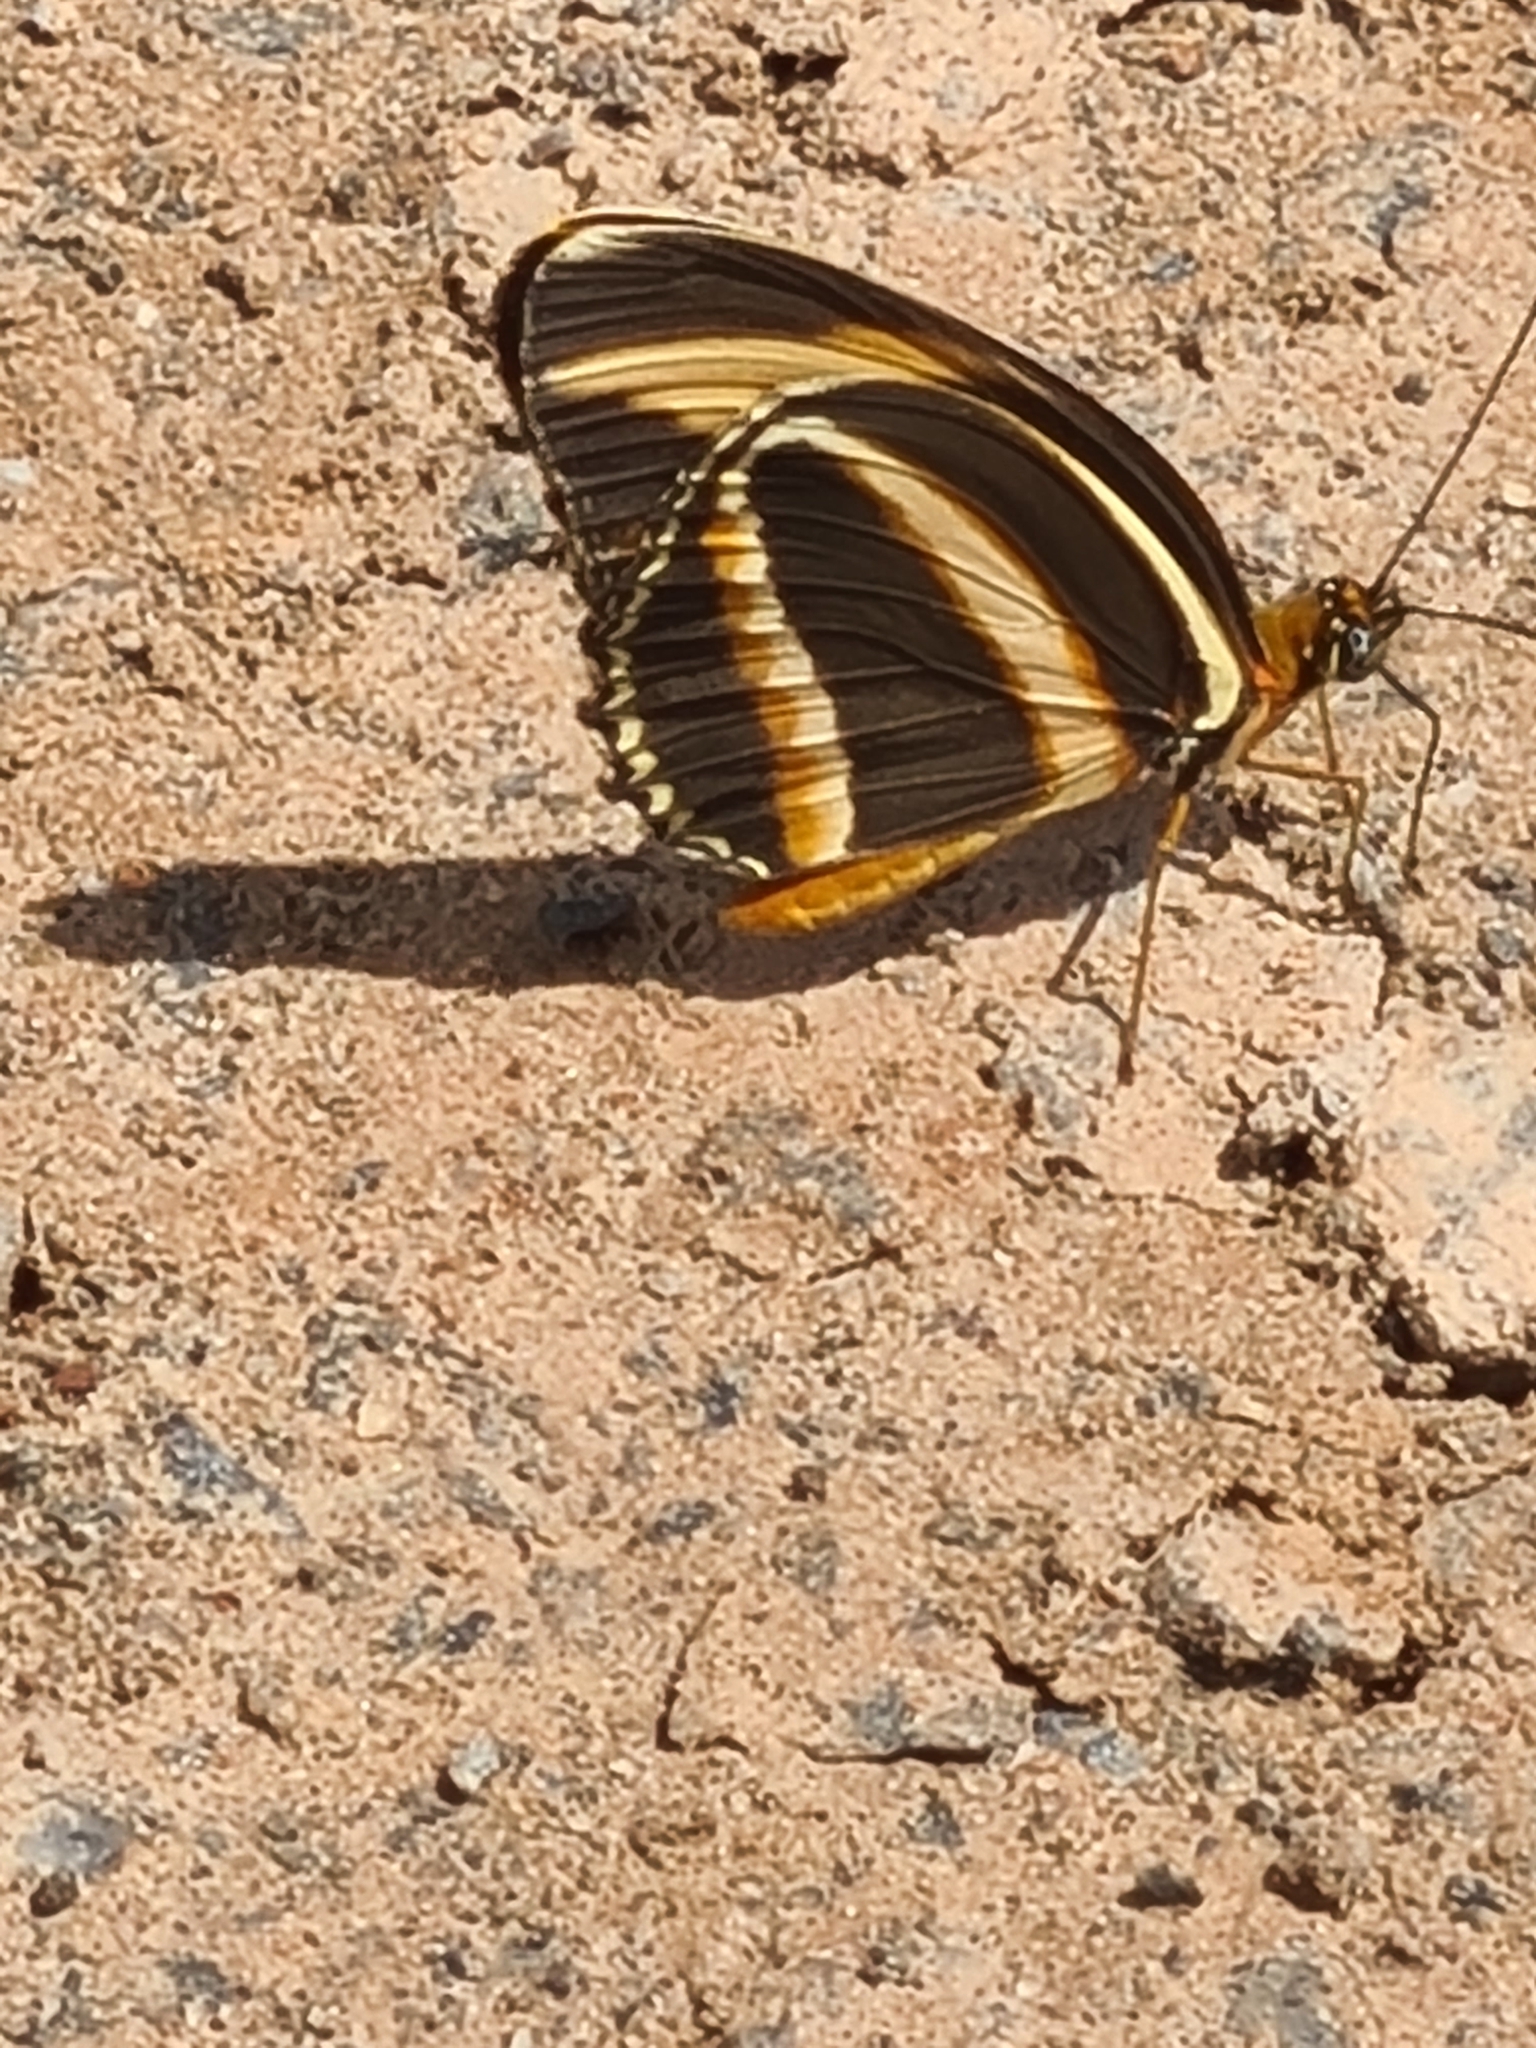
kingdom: Animalia
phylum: Arthropoda
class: Insecta
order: Lepidoptera
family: Nymphalidae
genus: Dryadula
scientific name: Dryadula phaetusa
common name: Banded orange heliconian
